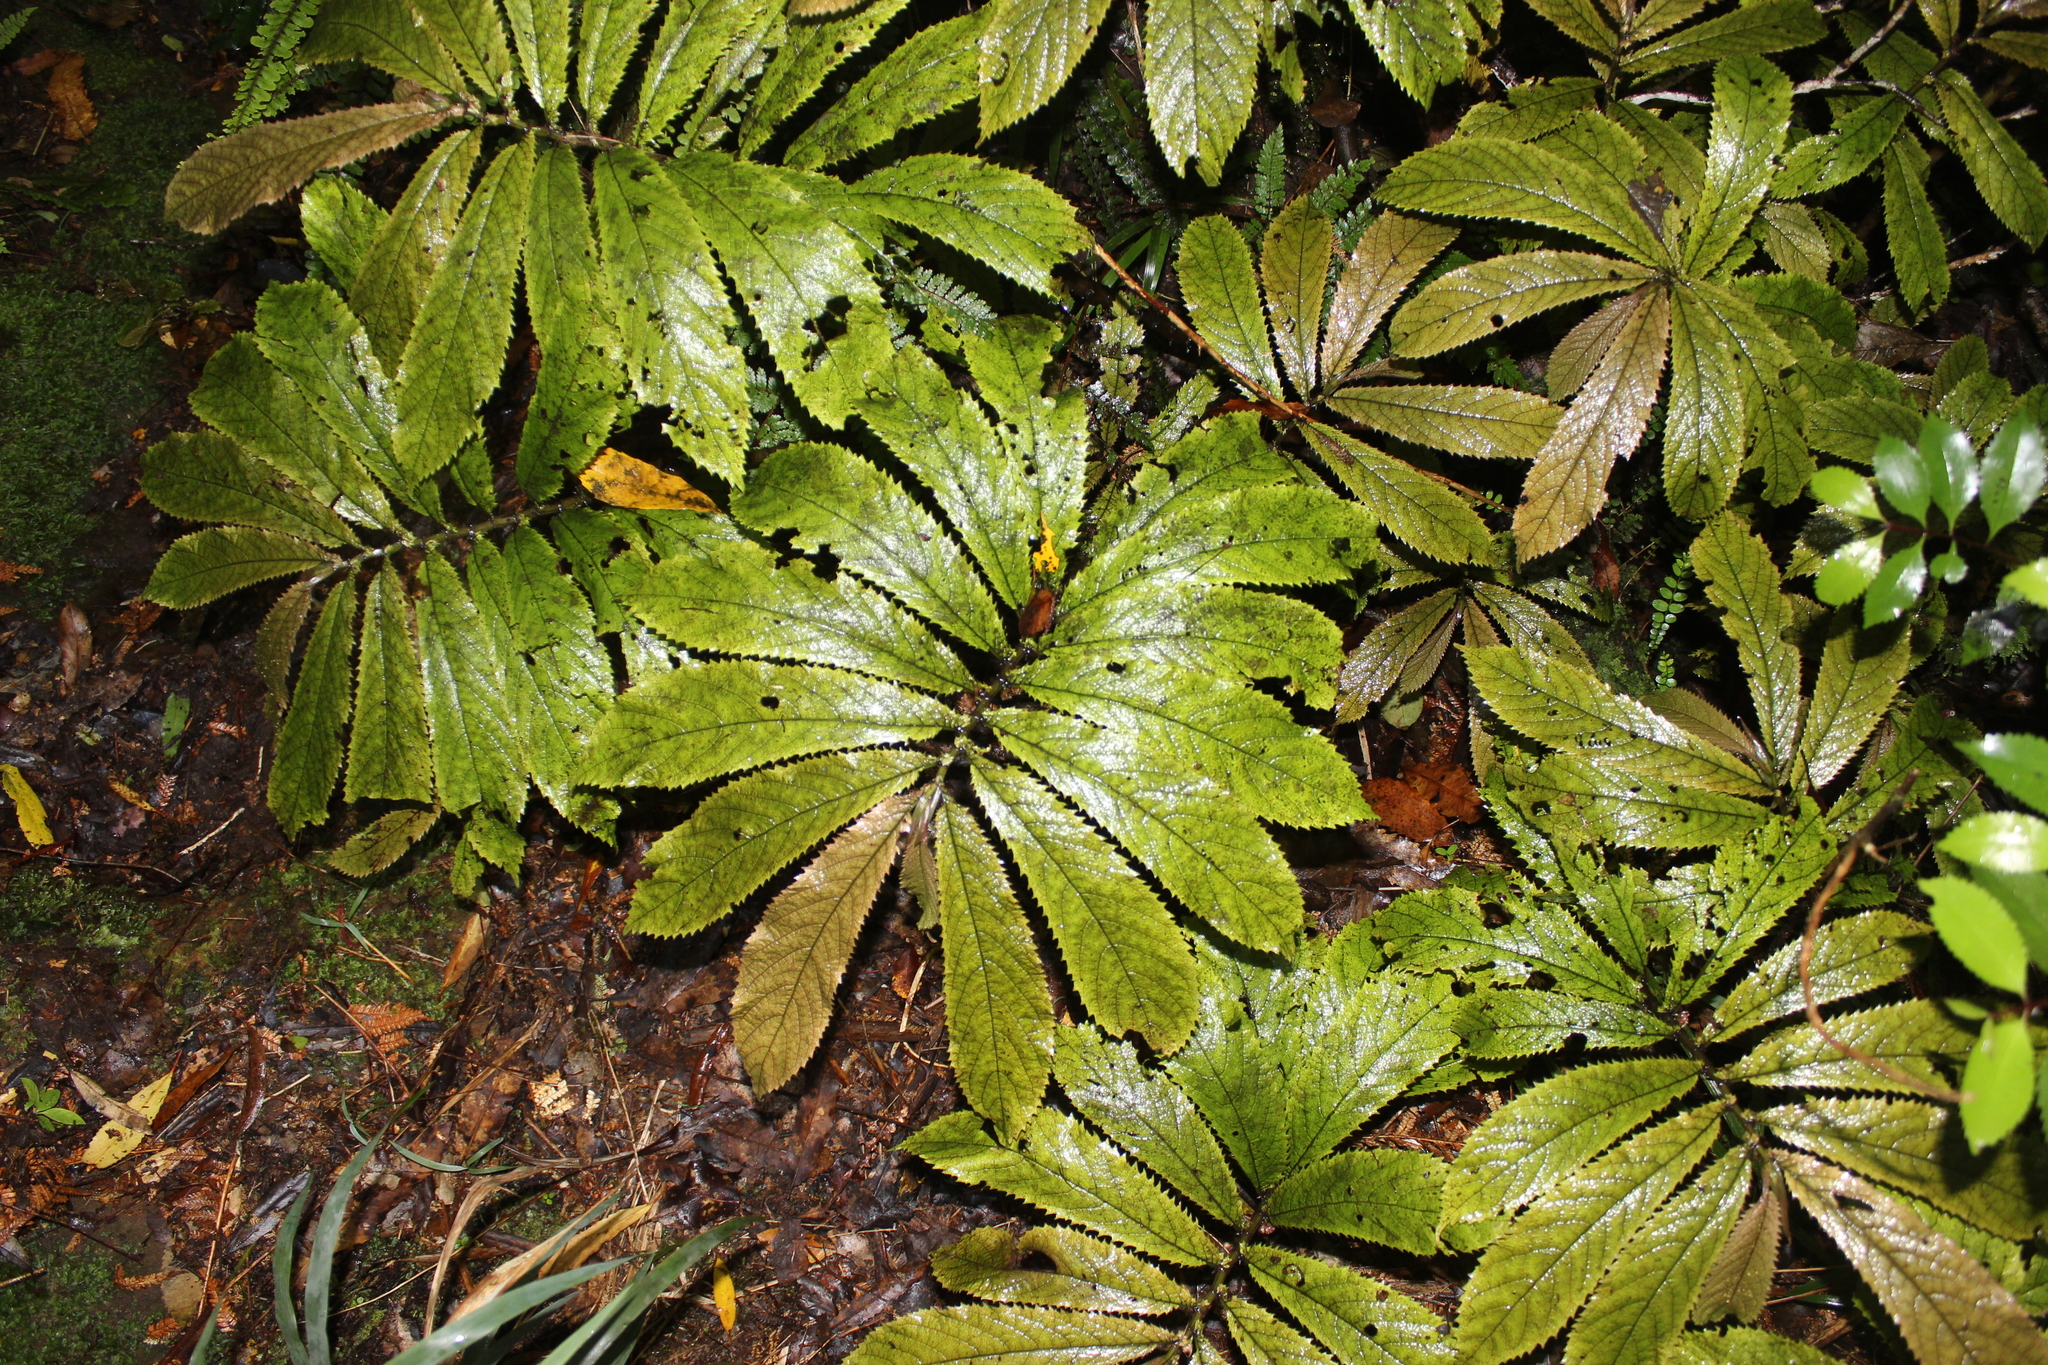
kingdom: Plantae
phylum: Tracheophyta
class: Magnoliopsida
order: Rosales
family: Urticaceae
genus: Elatostema
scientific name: Elatostema rugosum
